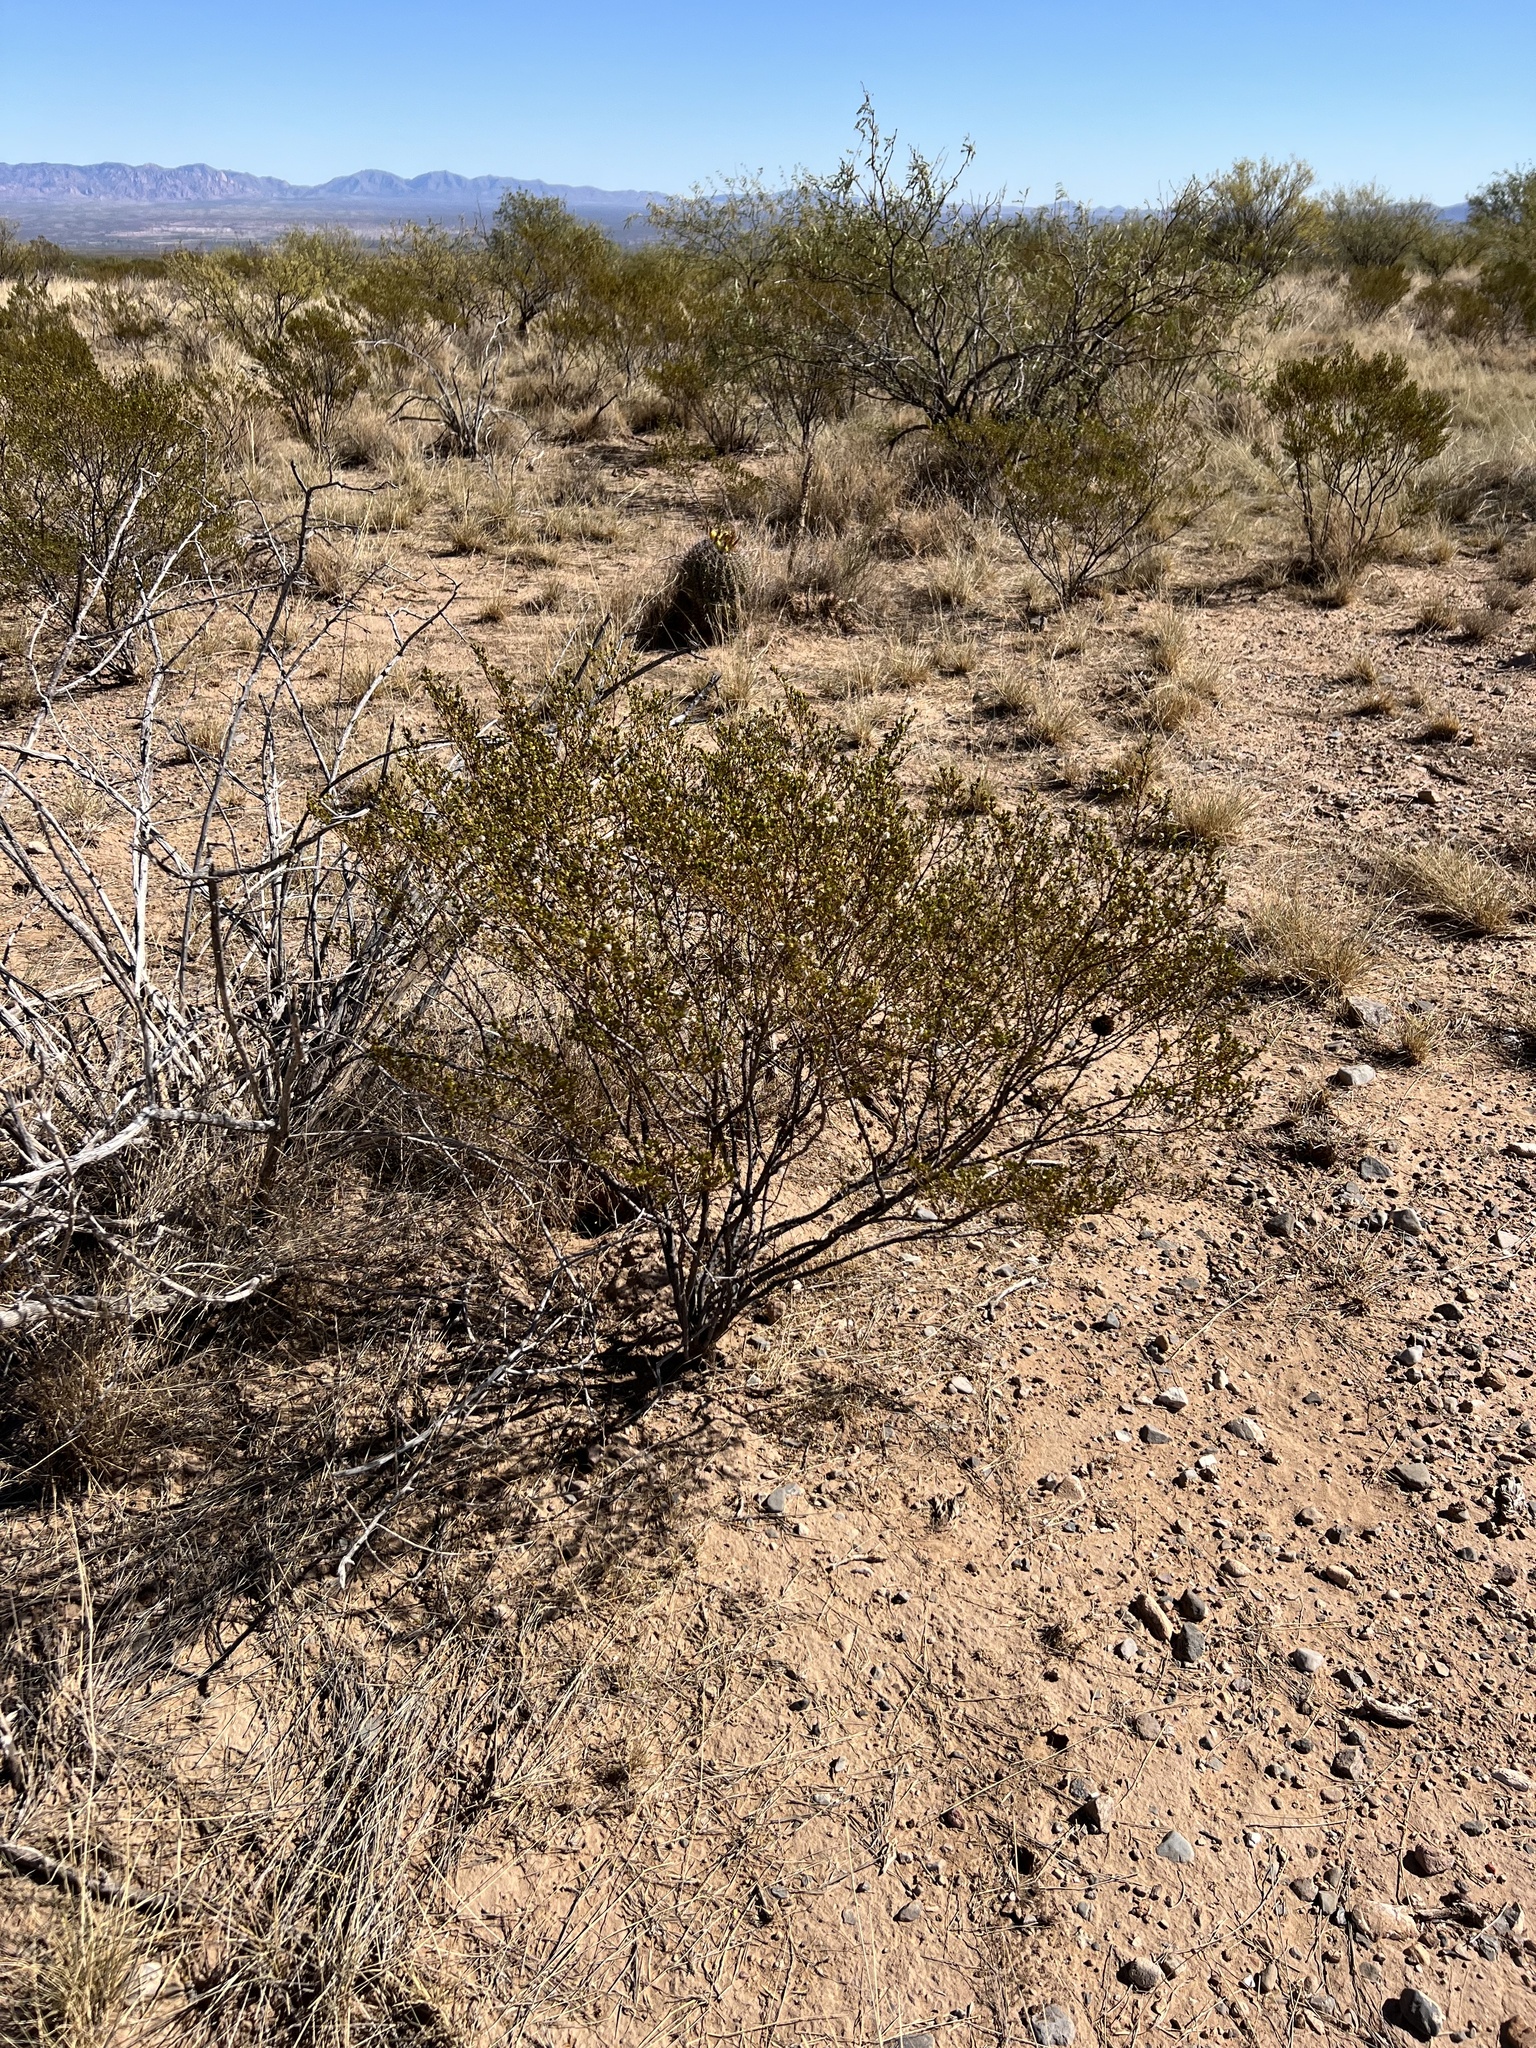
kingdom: Plantae
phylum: Tracheophyta
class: Magnoliopsida
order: Zygophyllales
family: Zygophyllaceae
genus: Larrea
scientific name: Larrea tridentata
